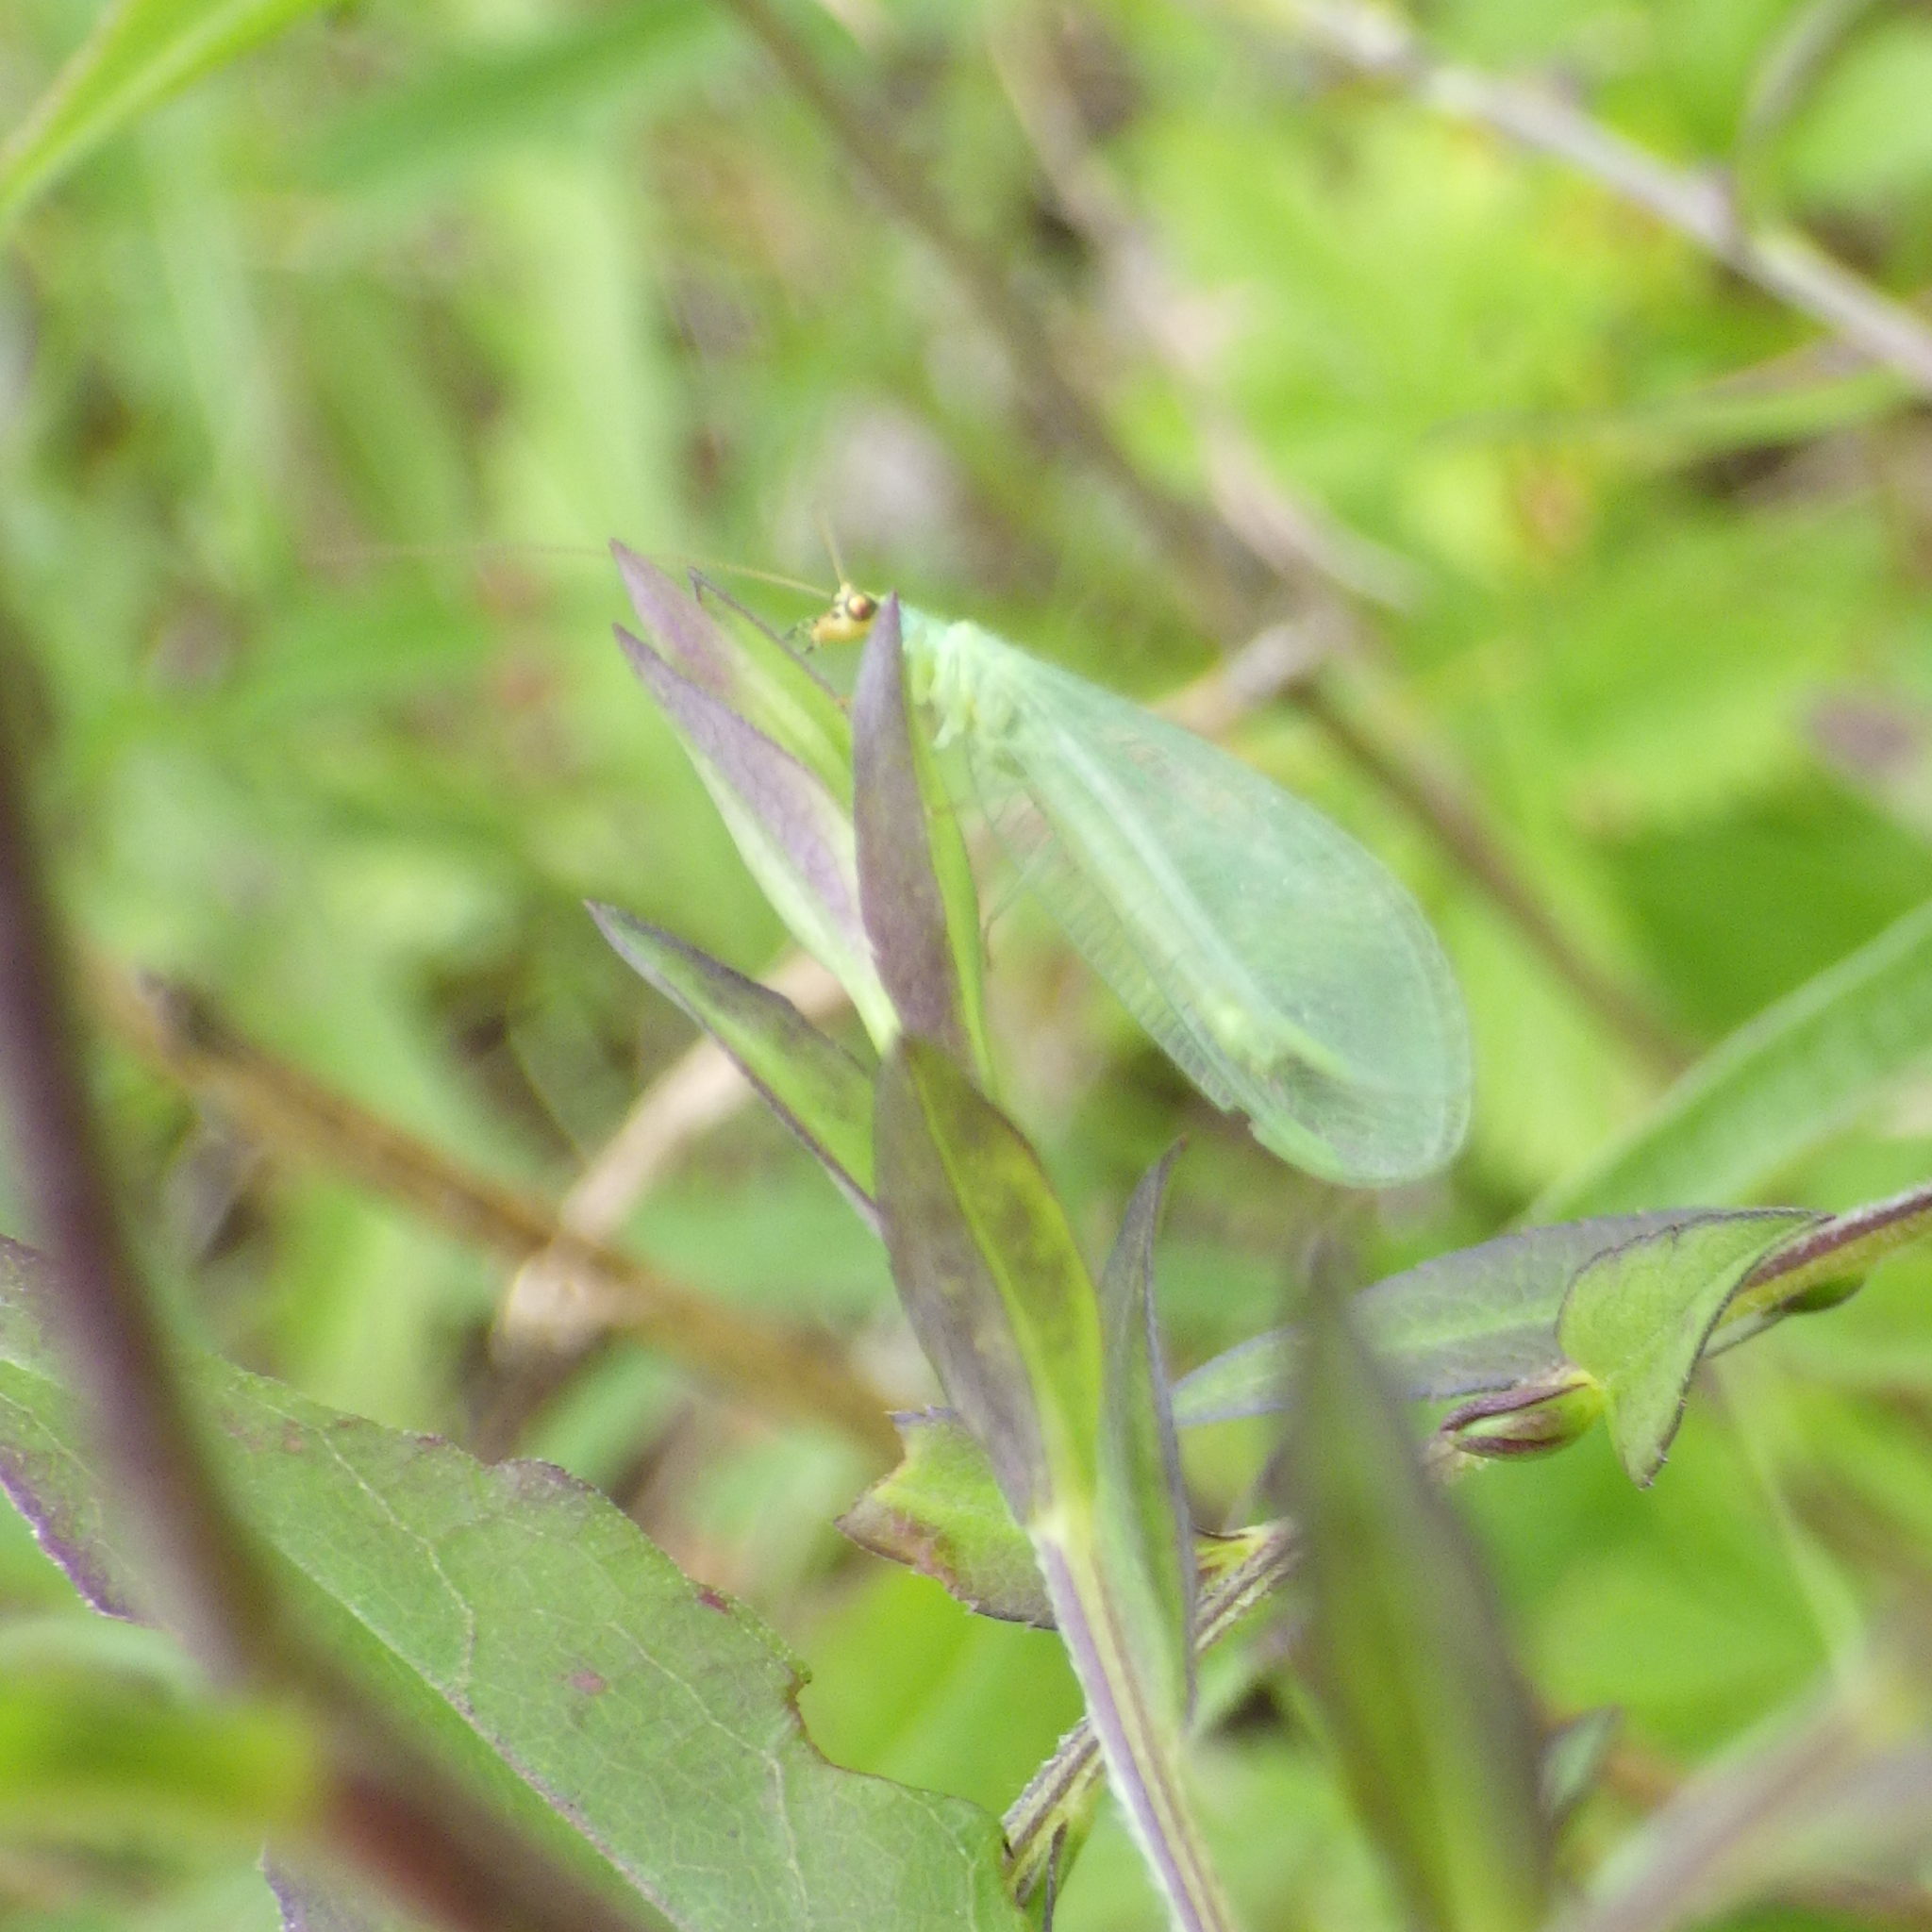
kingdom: Animalia
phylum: Arthropoda
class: Insecta
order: Neuroptera
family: Chrysopidae
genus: Chrysopa
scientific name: Chrysopa oculata
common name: Golden-eyed lacewing
